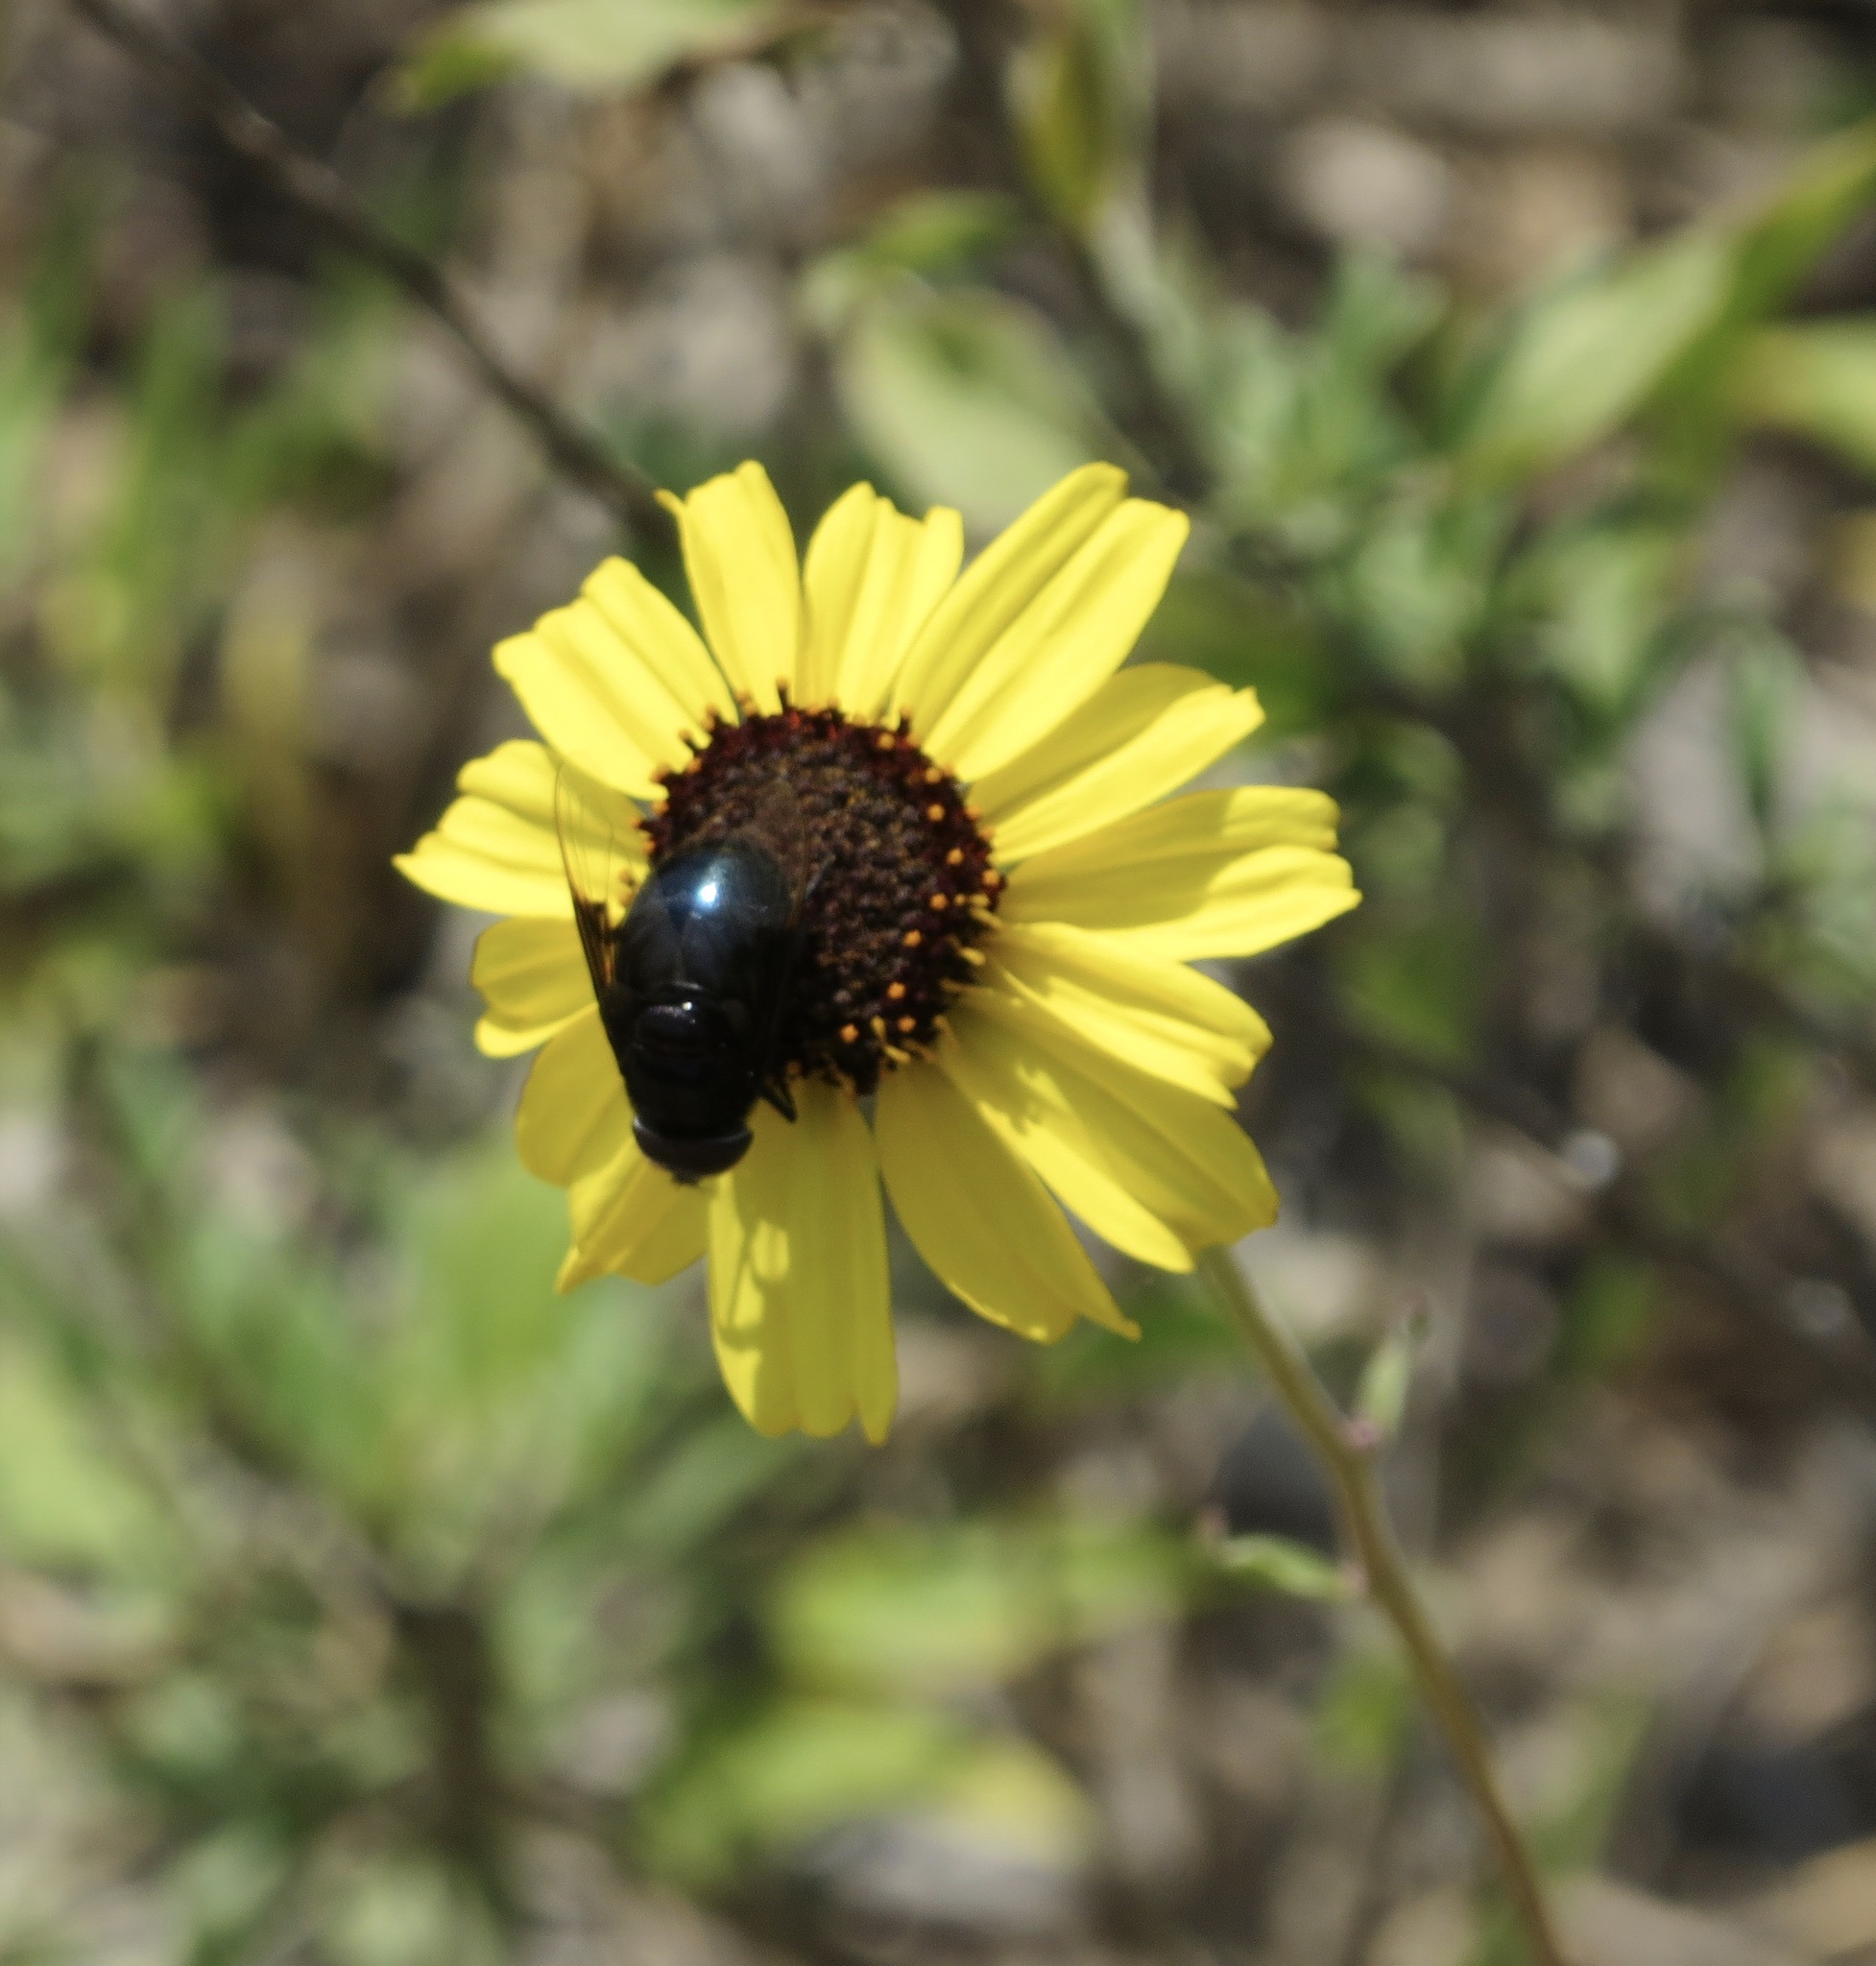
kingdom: Animalia
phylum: Arthropoda
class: Insecta
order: Diptera
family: Syrphidae
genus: Copestylum
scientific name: Copestylum mexicanum
